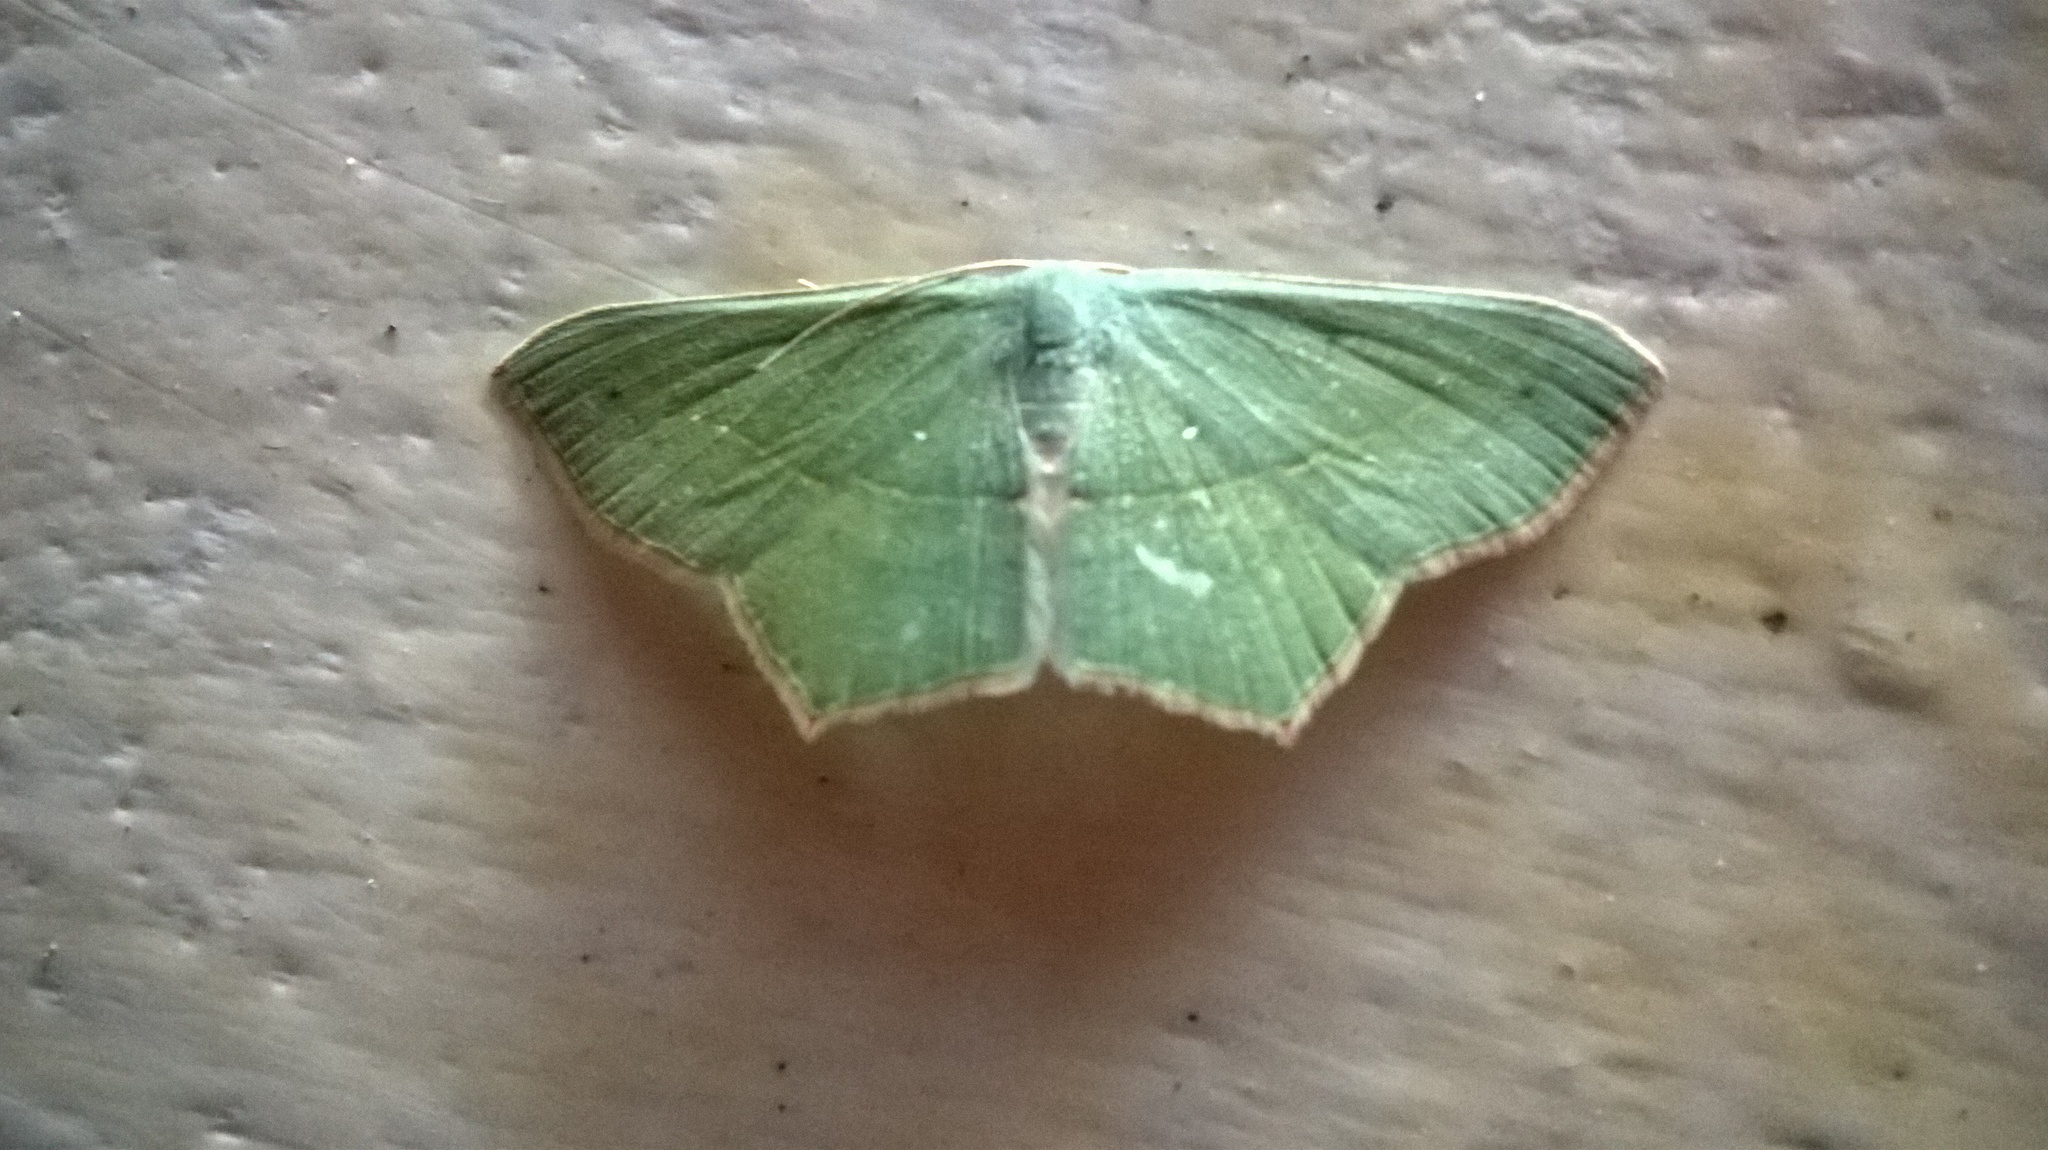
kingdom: Animalia
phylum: Arthropoda
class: Insecta
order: Lepidoptera
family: Geometridae
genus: Traminda
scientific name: Traminda mundissima
